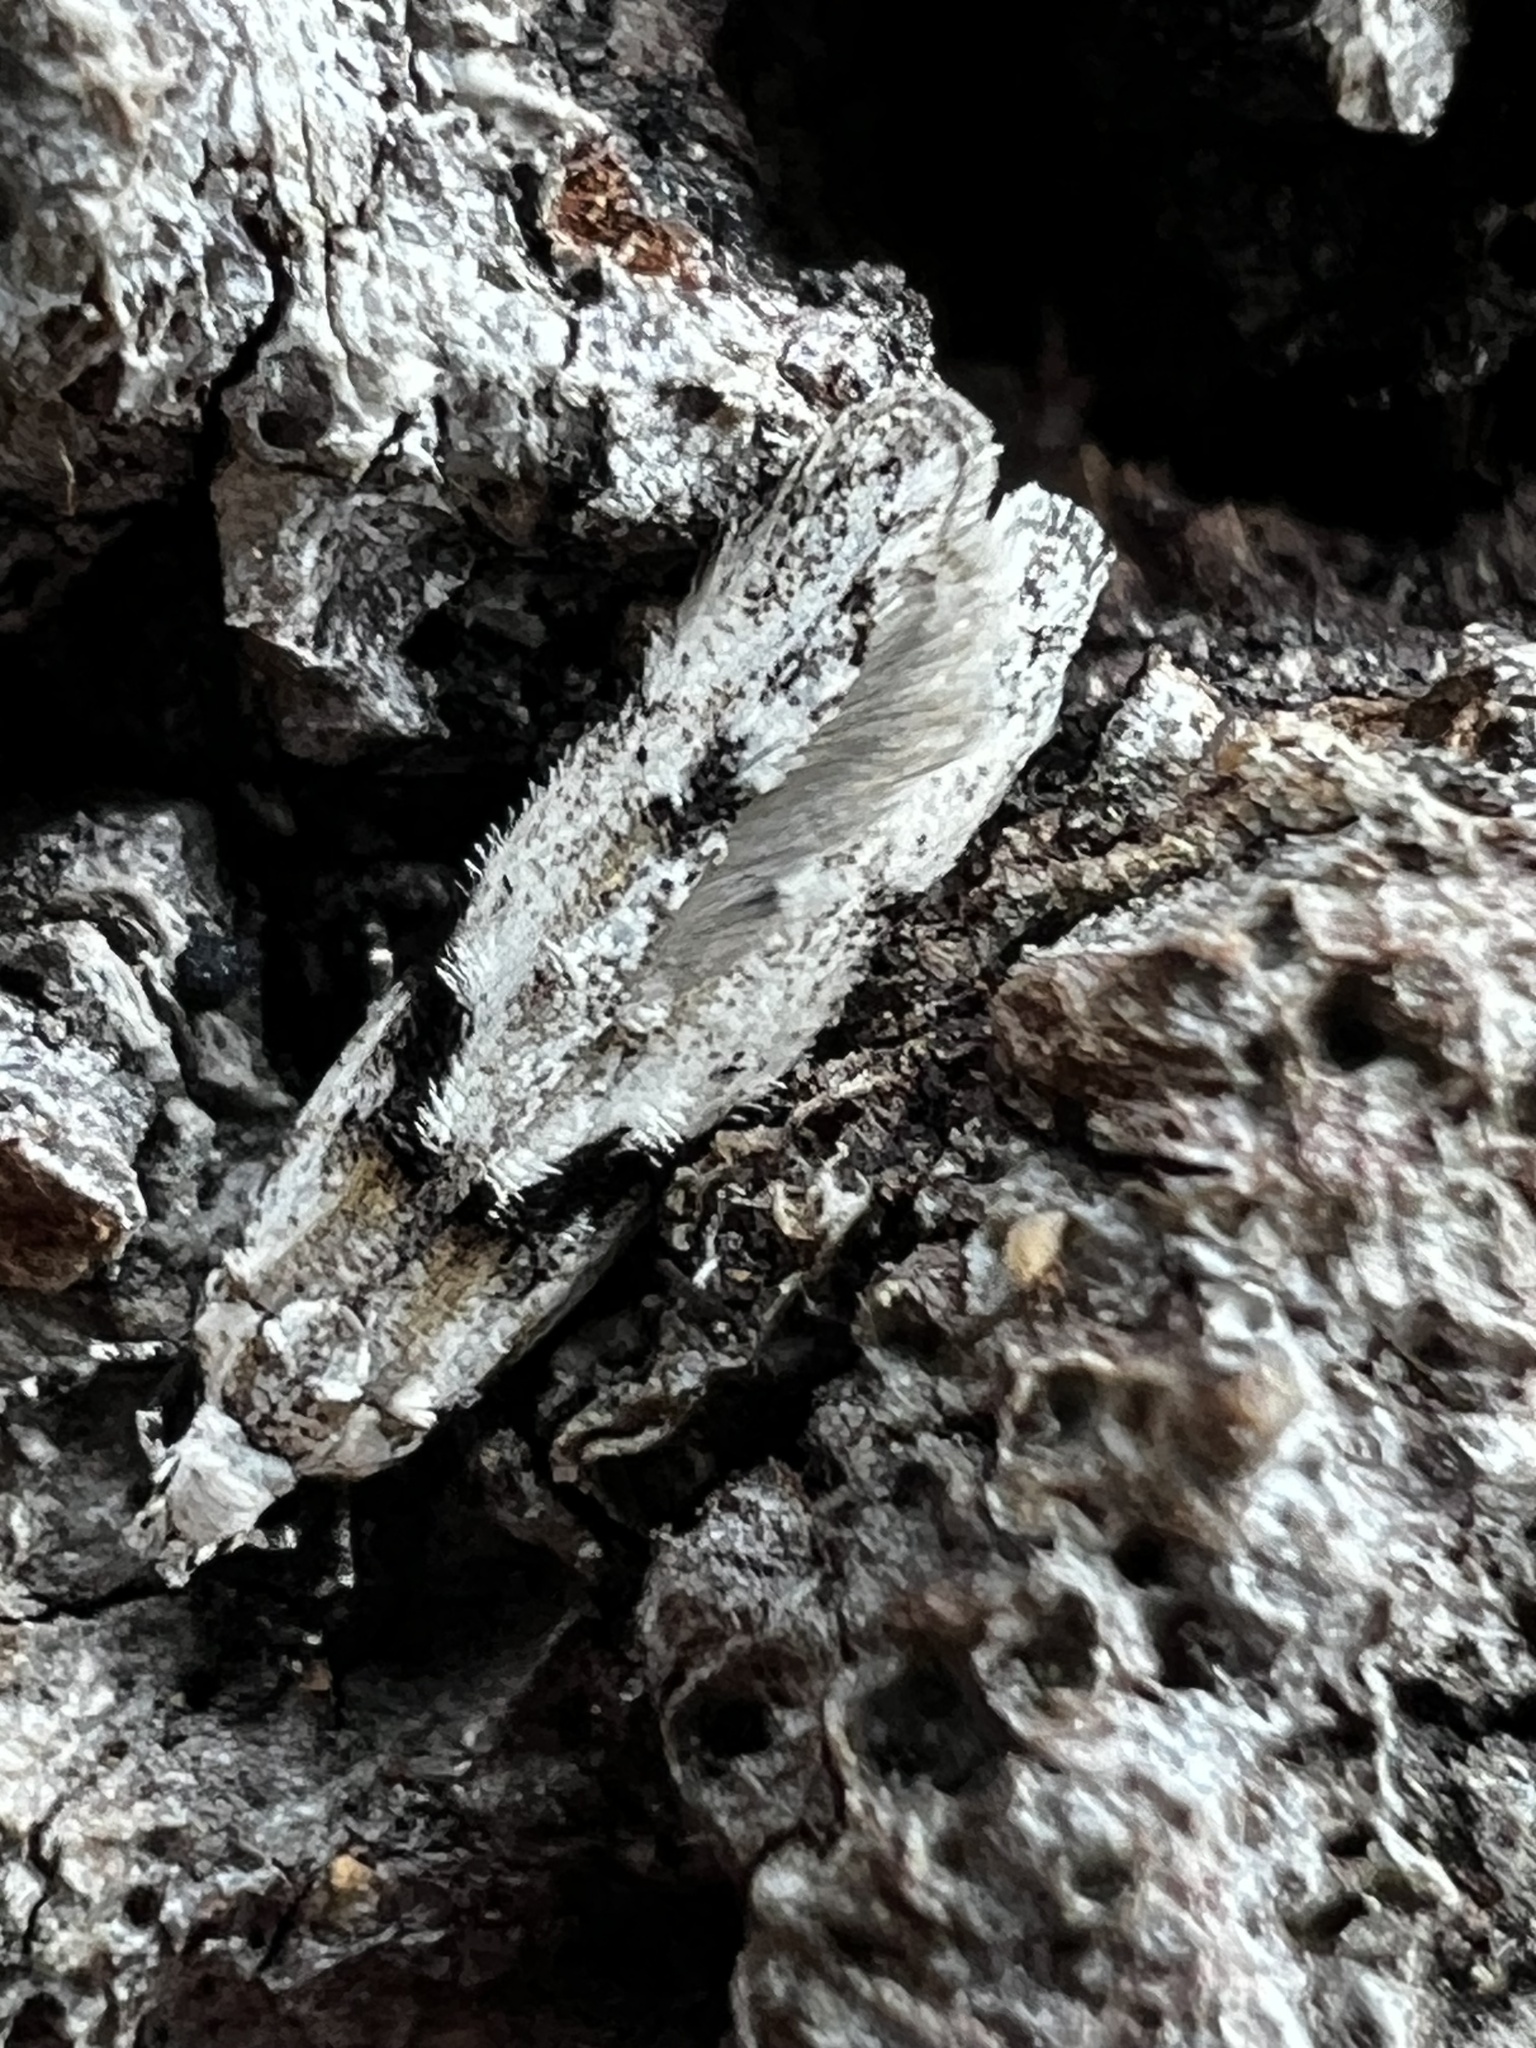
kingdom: Animalia
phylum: Arthropoda
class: Insecta
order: Lepidoptera
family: Gelechiidae
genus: Arogalea
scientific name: Arogalea cristifasciella
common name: White stripe-backed moth
